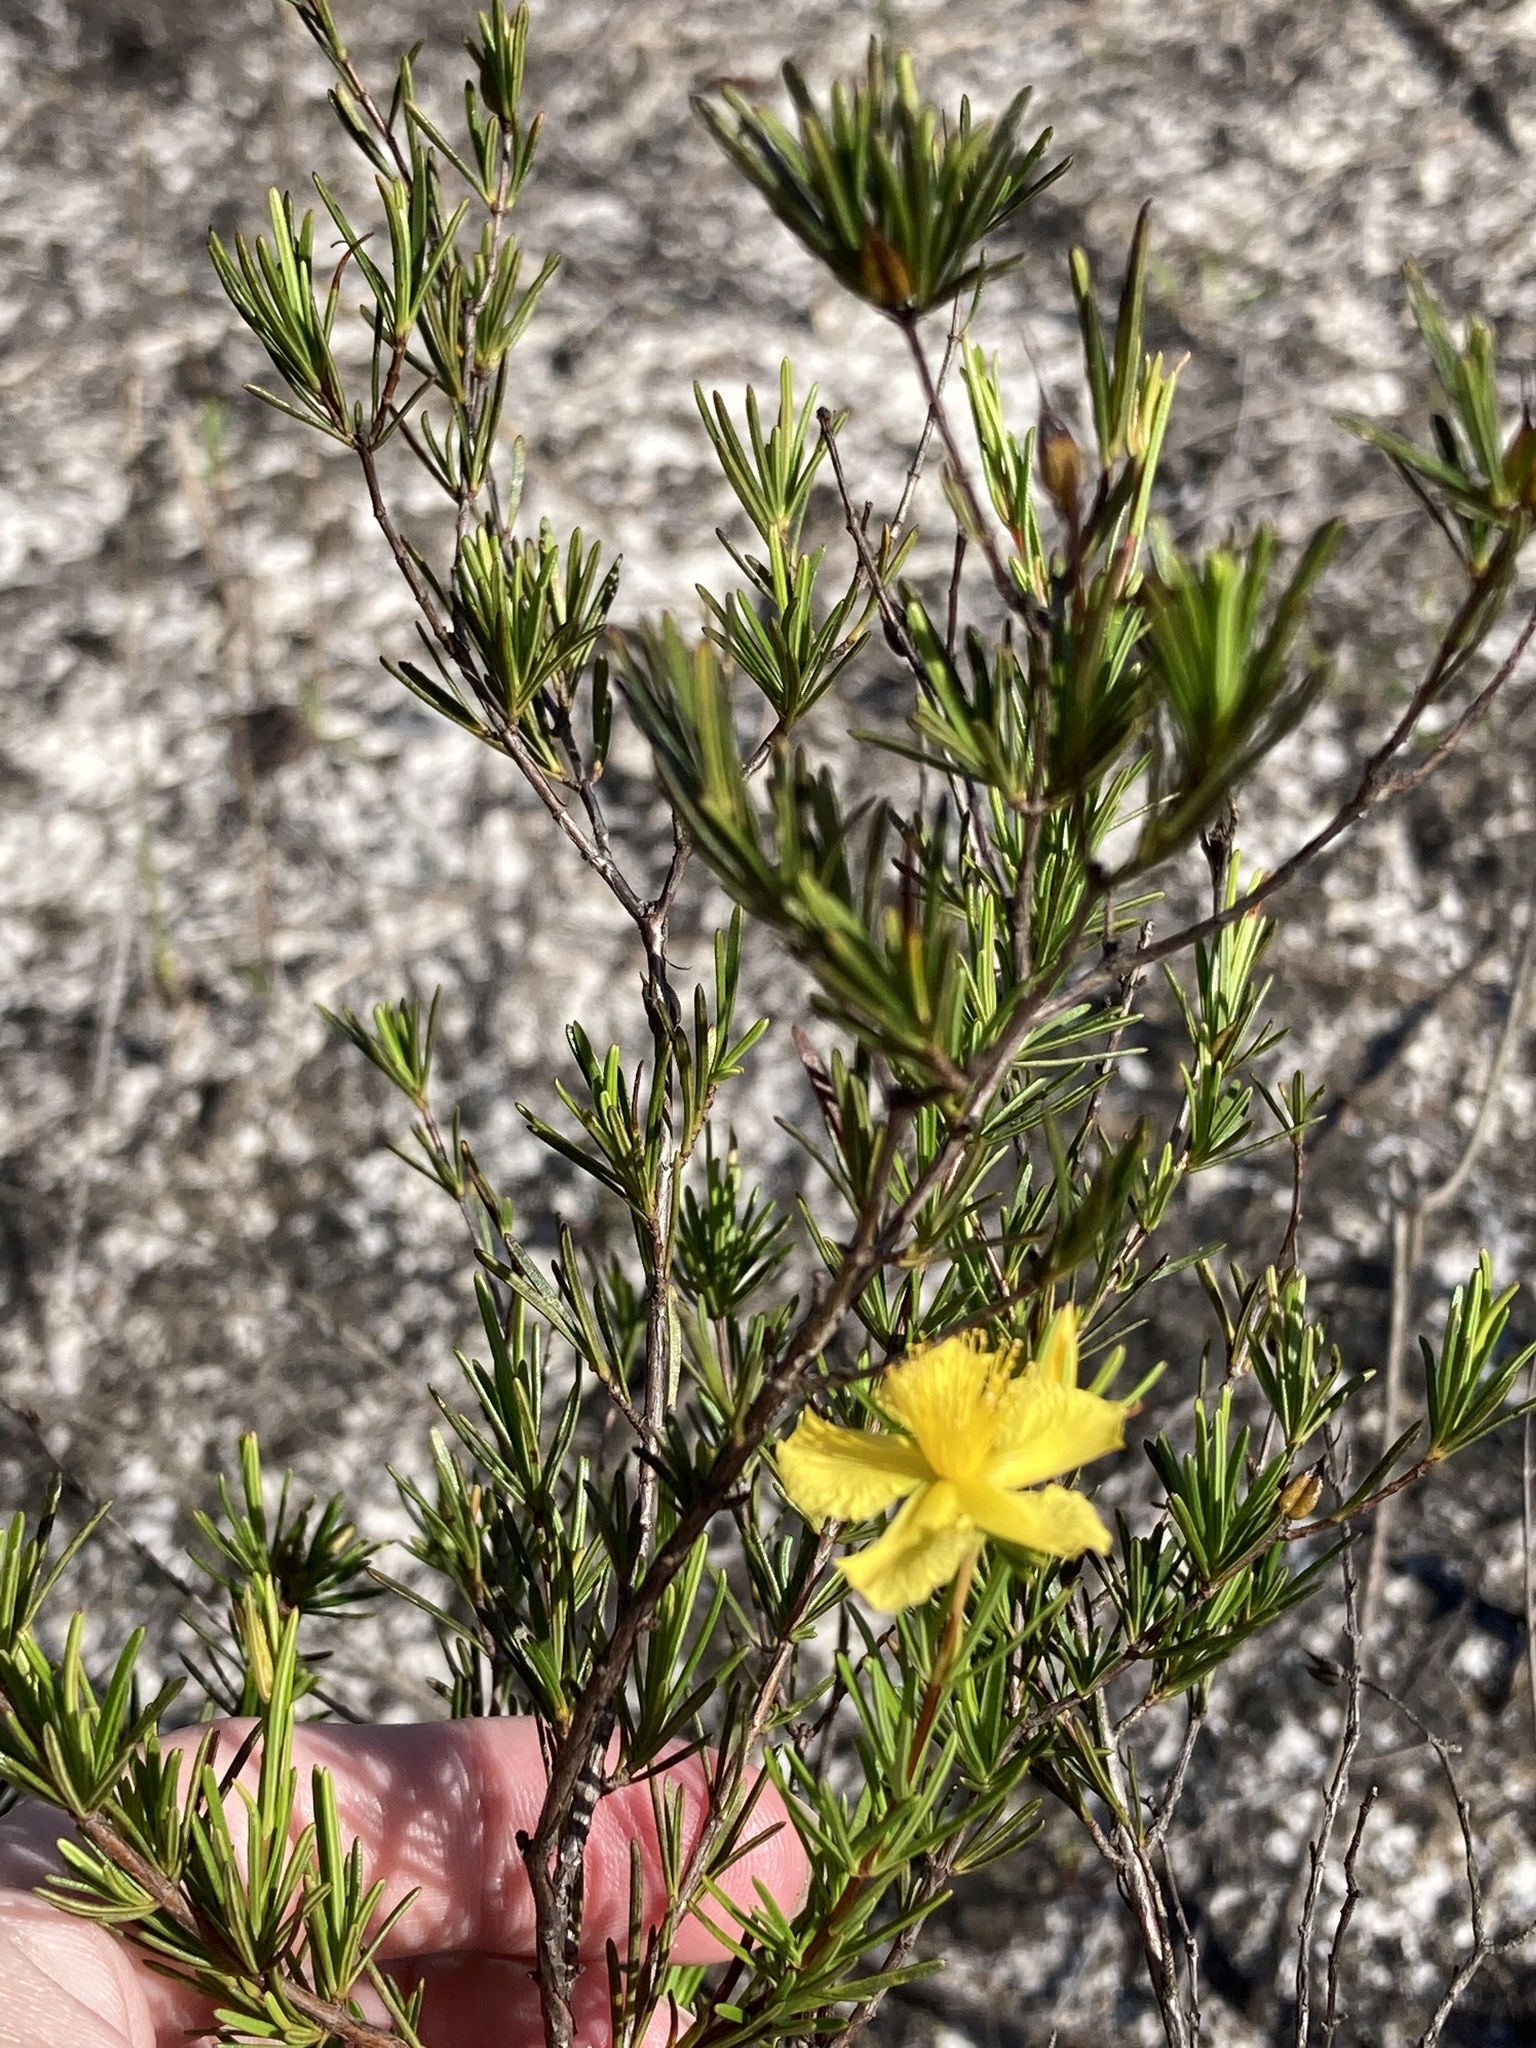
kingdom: Plantae
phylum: Tracheophyta
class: Magnoliopsida
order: Malpighiales
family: Hypericaceae
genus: Hypericum
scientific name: Hypericum fasciculatum
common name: Peelbark st. john's wort
